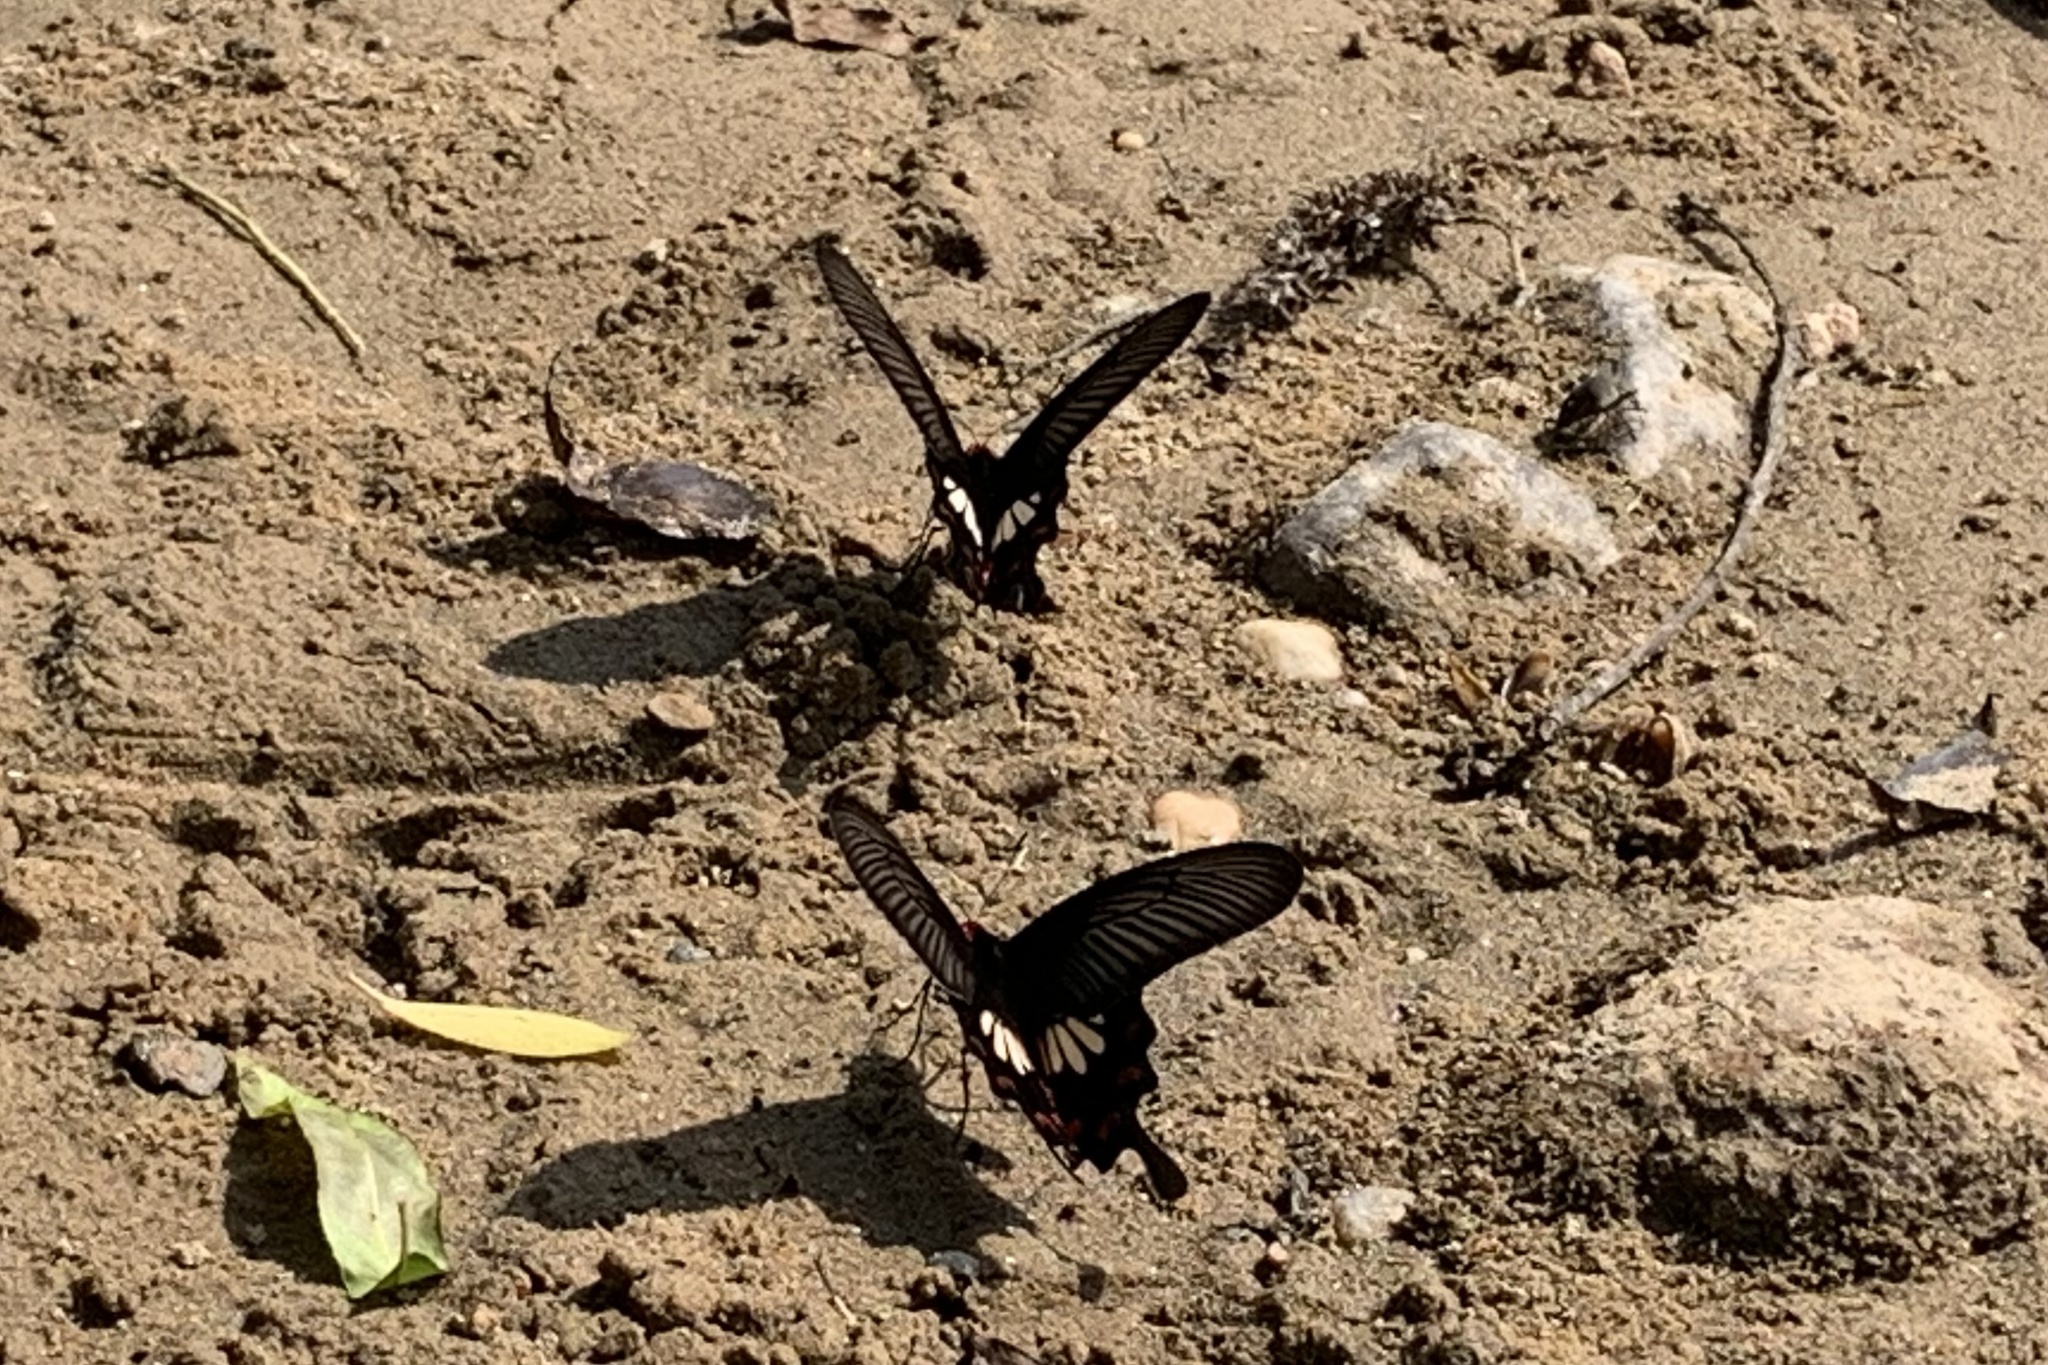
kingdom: Animalia
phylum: Arthropoda
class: Insecta
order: Lepidoptera
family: Papilionidae
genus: Pachliopta
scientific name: Pachliopta aristolochiae
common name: Common rose
